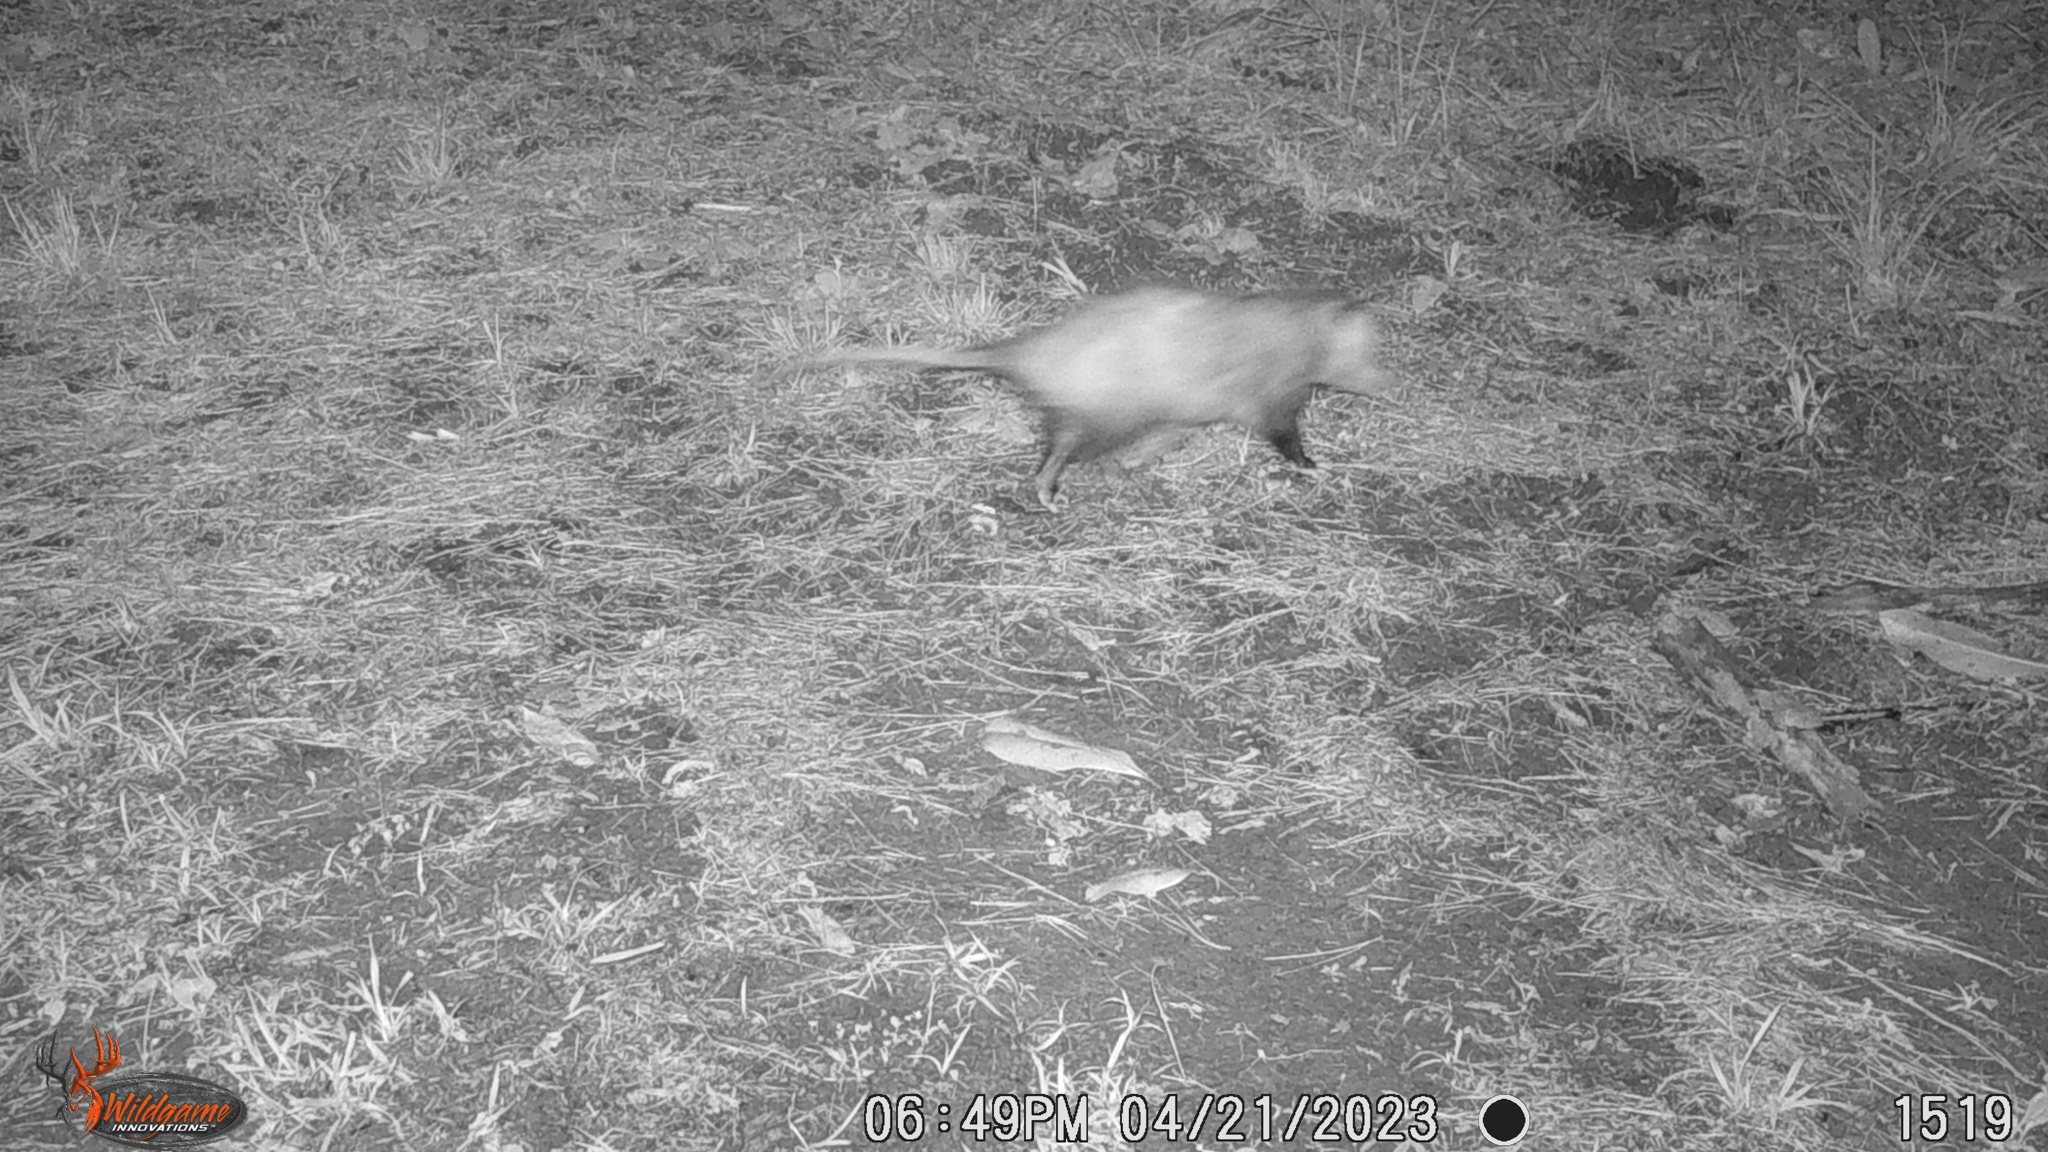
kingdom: Animalia
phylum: Chordata
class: Mammalia
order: Didelphimorphia
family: Didelphidae
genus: Didelphis
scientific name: Didelphis virginiana
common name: Virginia opossum
